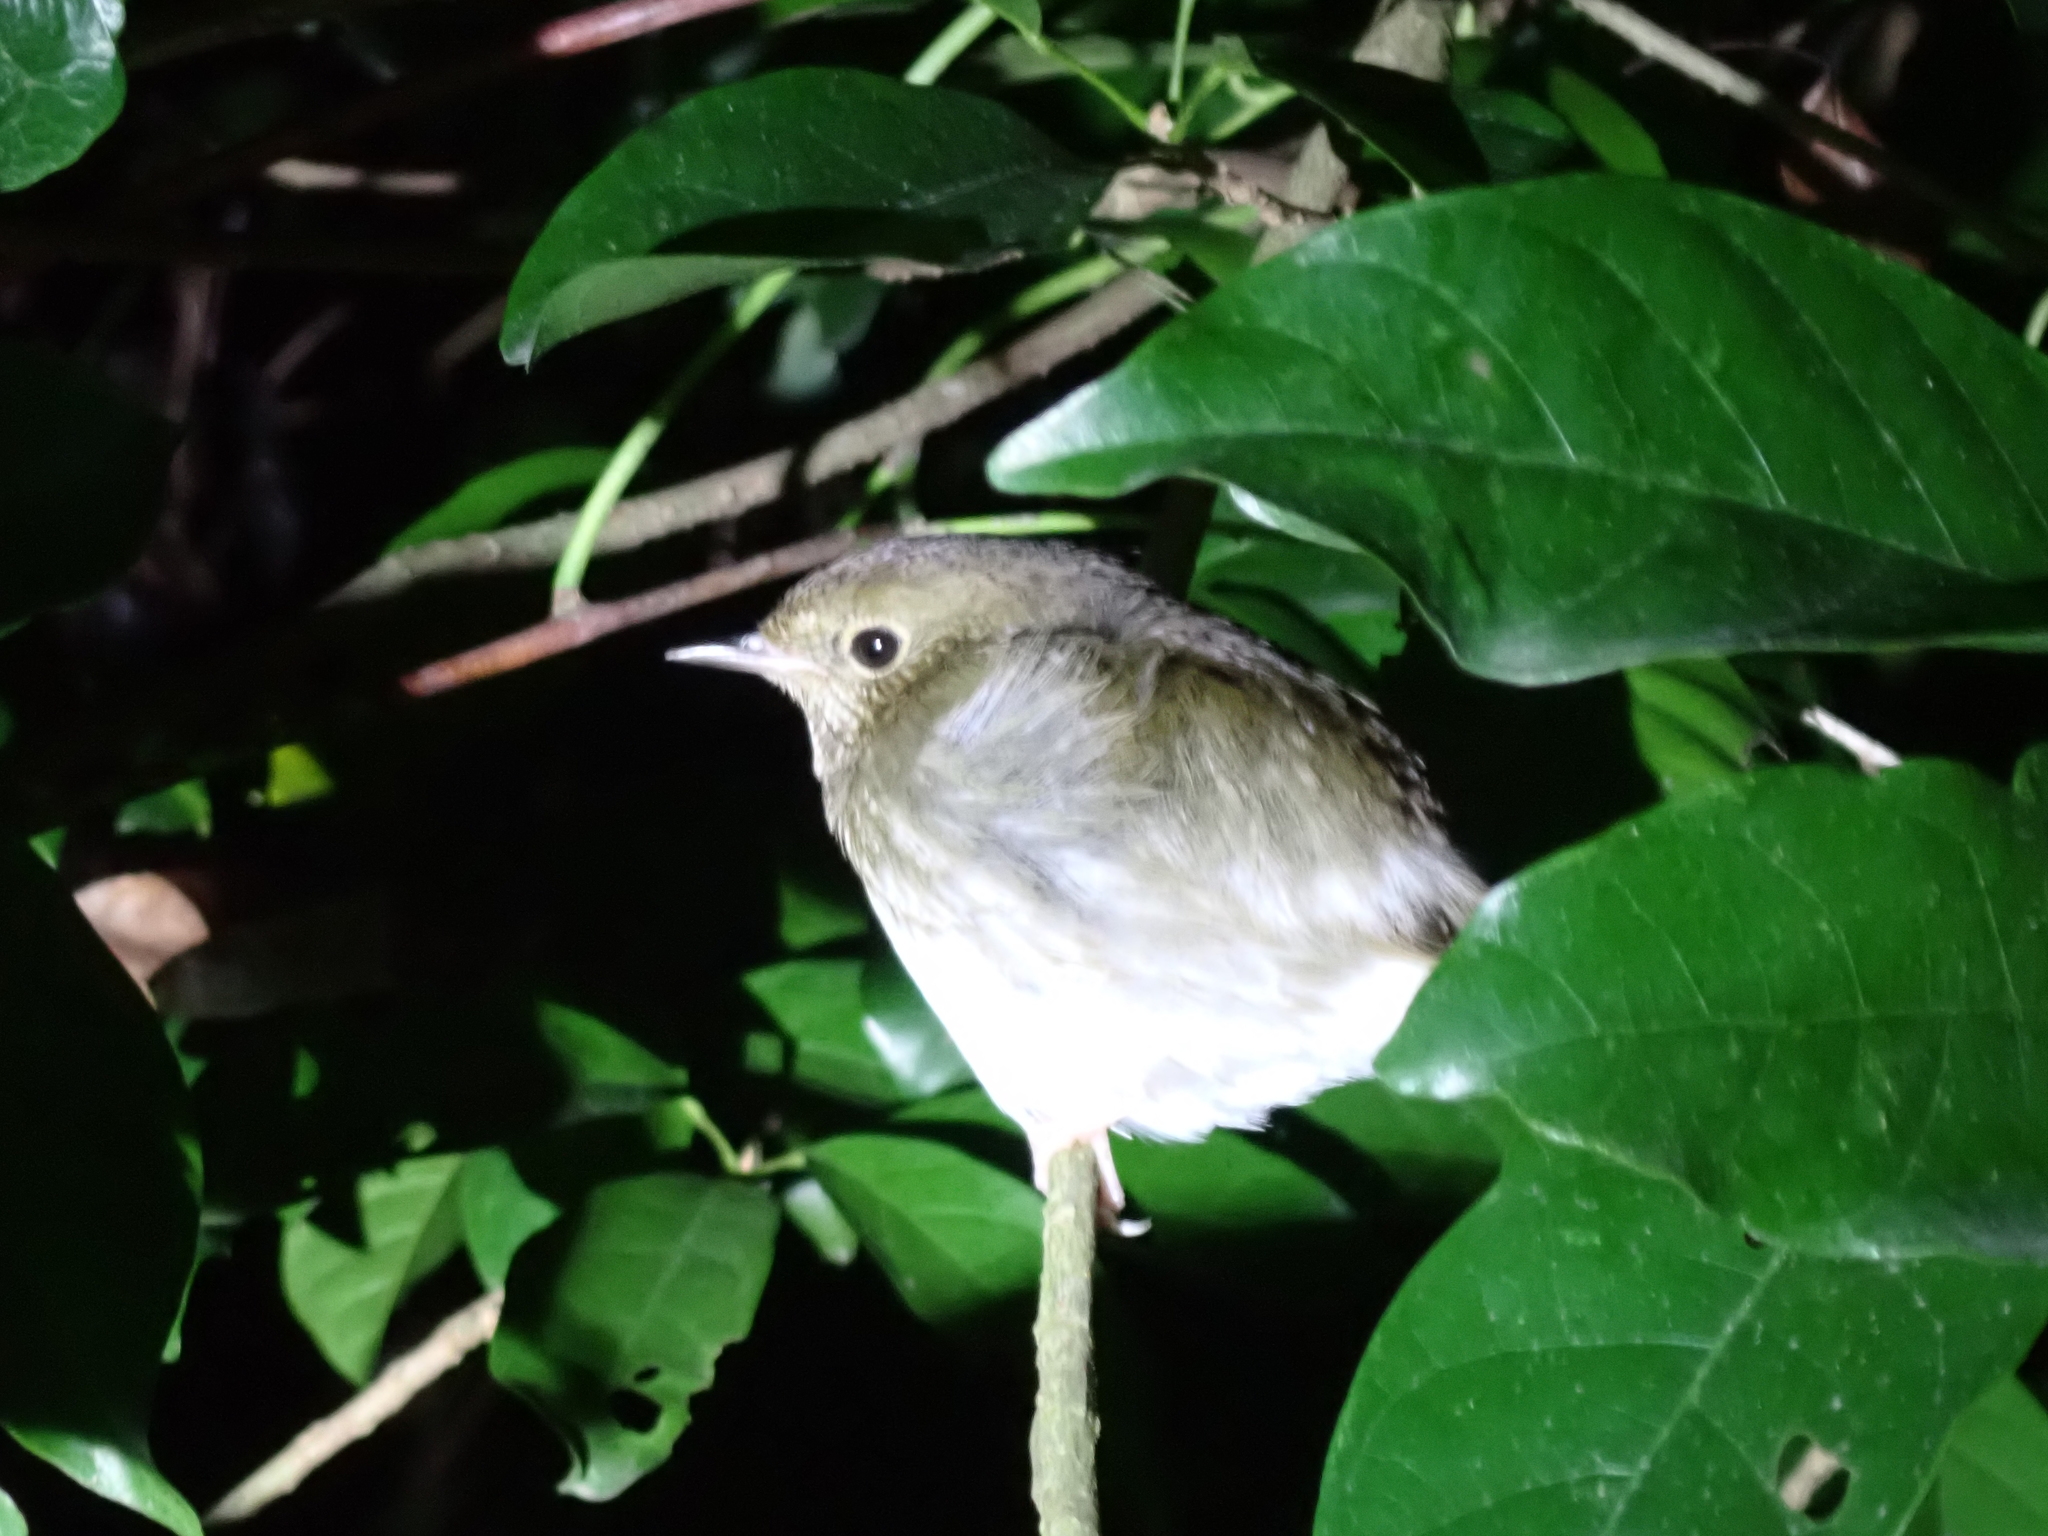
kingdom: Animalia
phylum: Chordata
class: Aves
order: Passeriformes
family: Muscicapidae
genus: Luscinia
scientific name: Luscinia cyane
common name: Siberian blue robin
